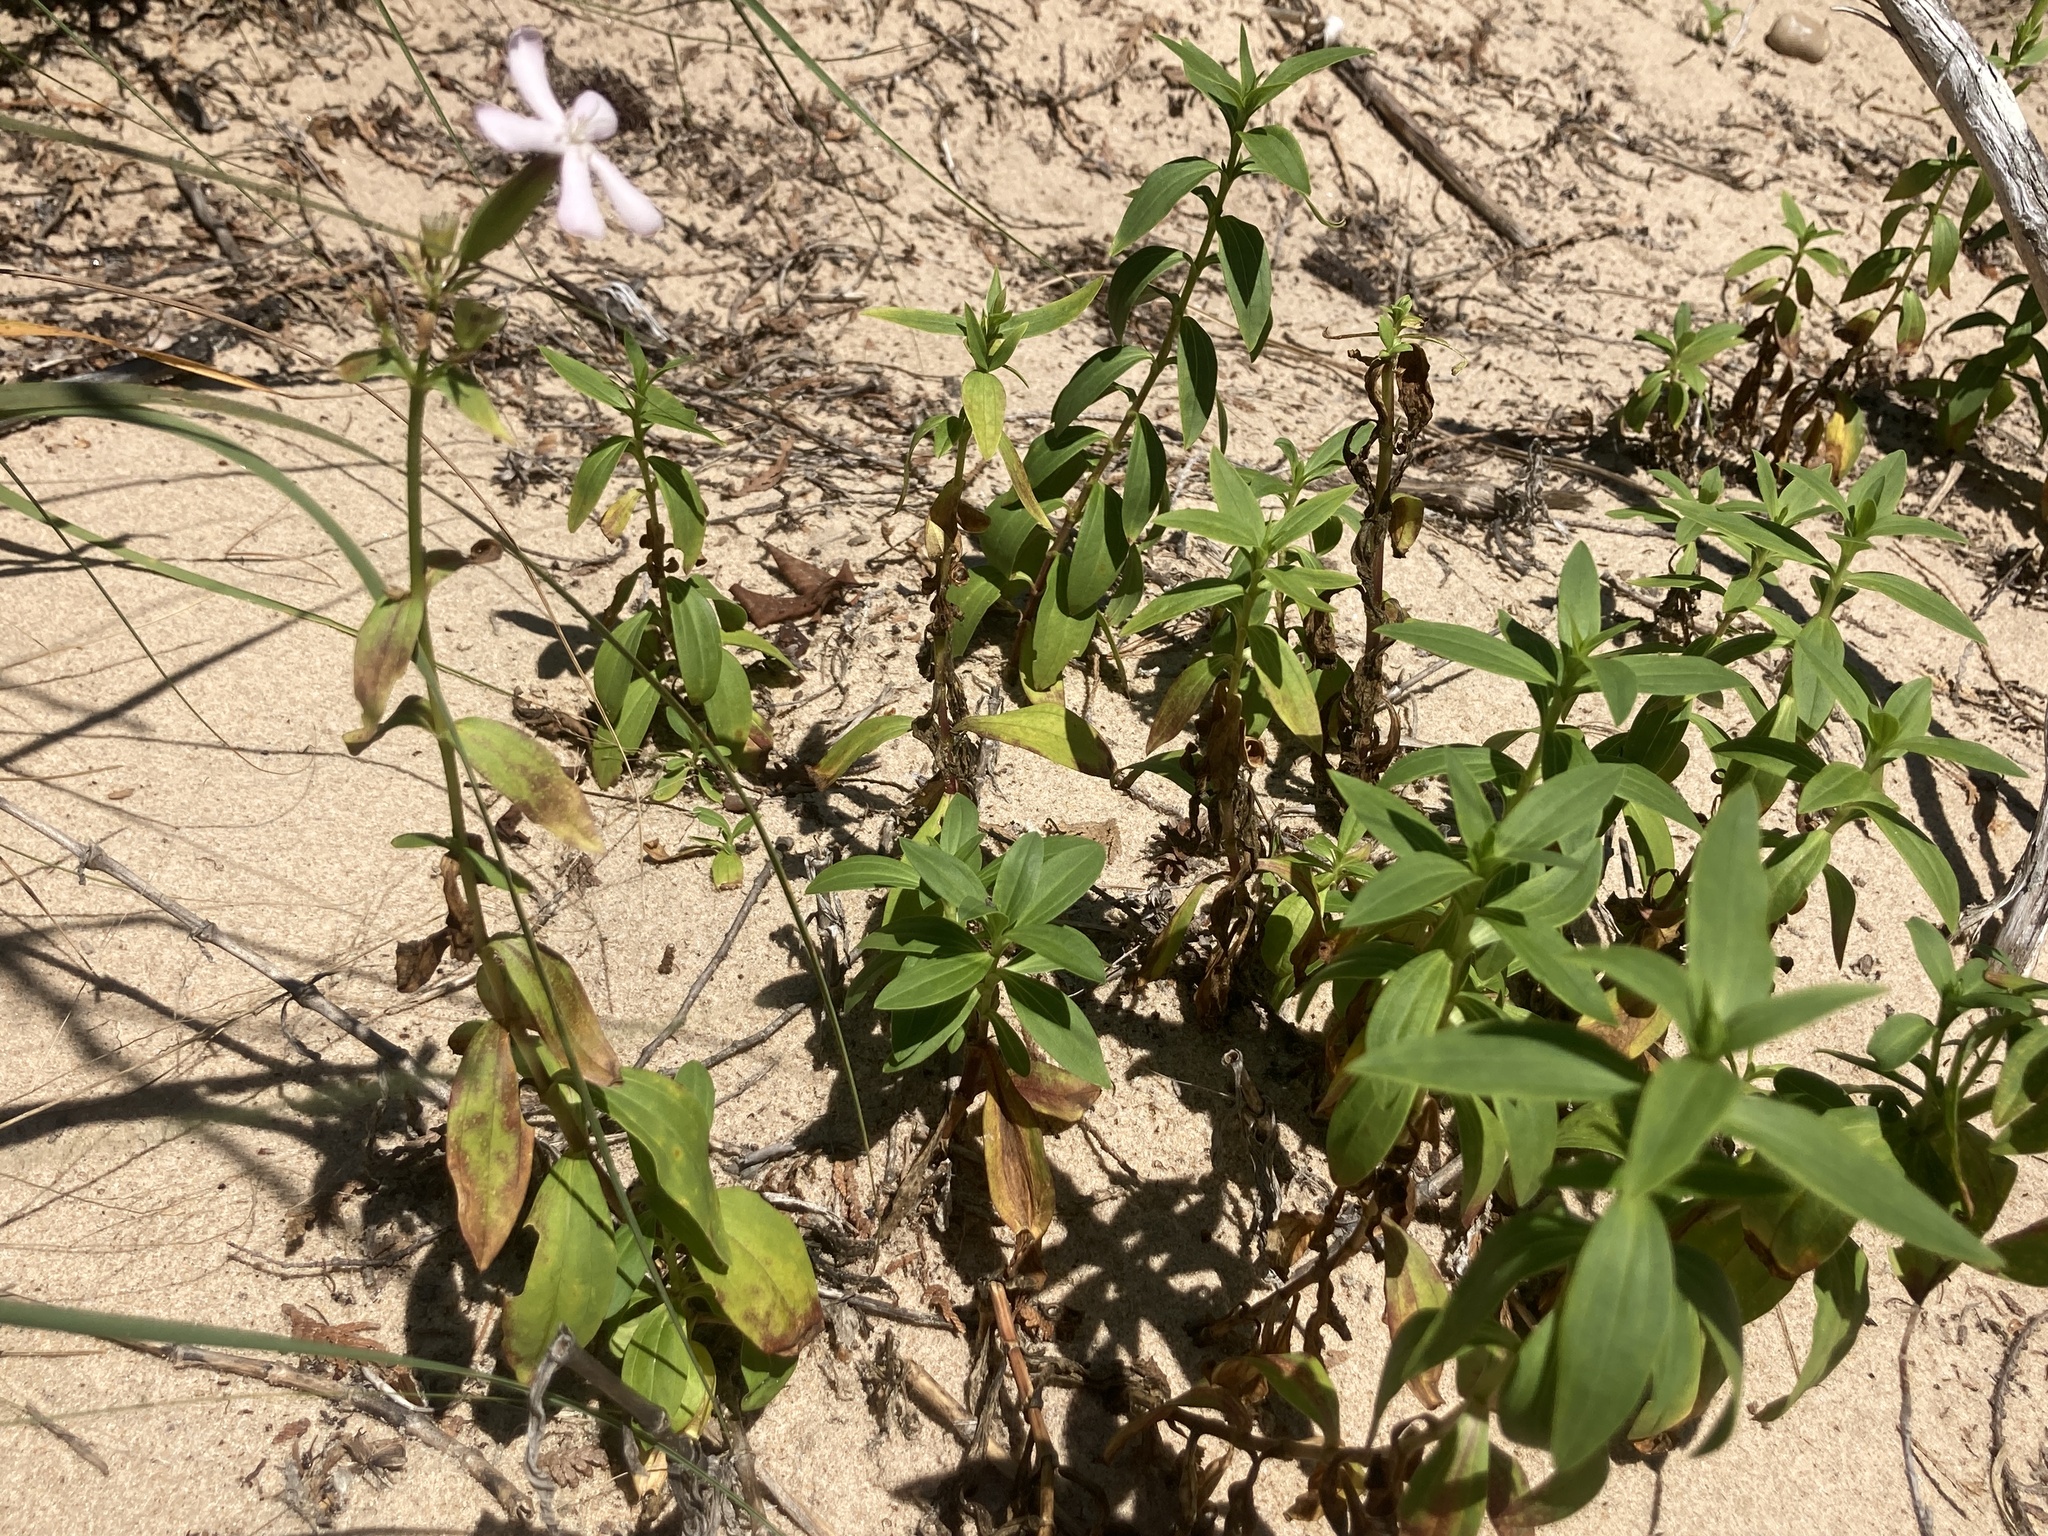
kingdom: Plantae
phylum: Tracheophyta
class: Magnoliopsida
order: Caryophyllales
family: Caryophyllaceae
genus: Saponaria
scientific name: Saponaria officinalis
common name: Soapwort
